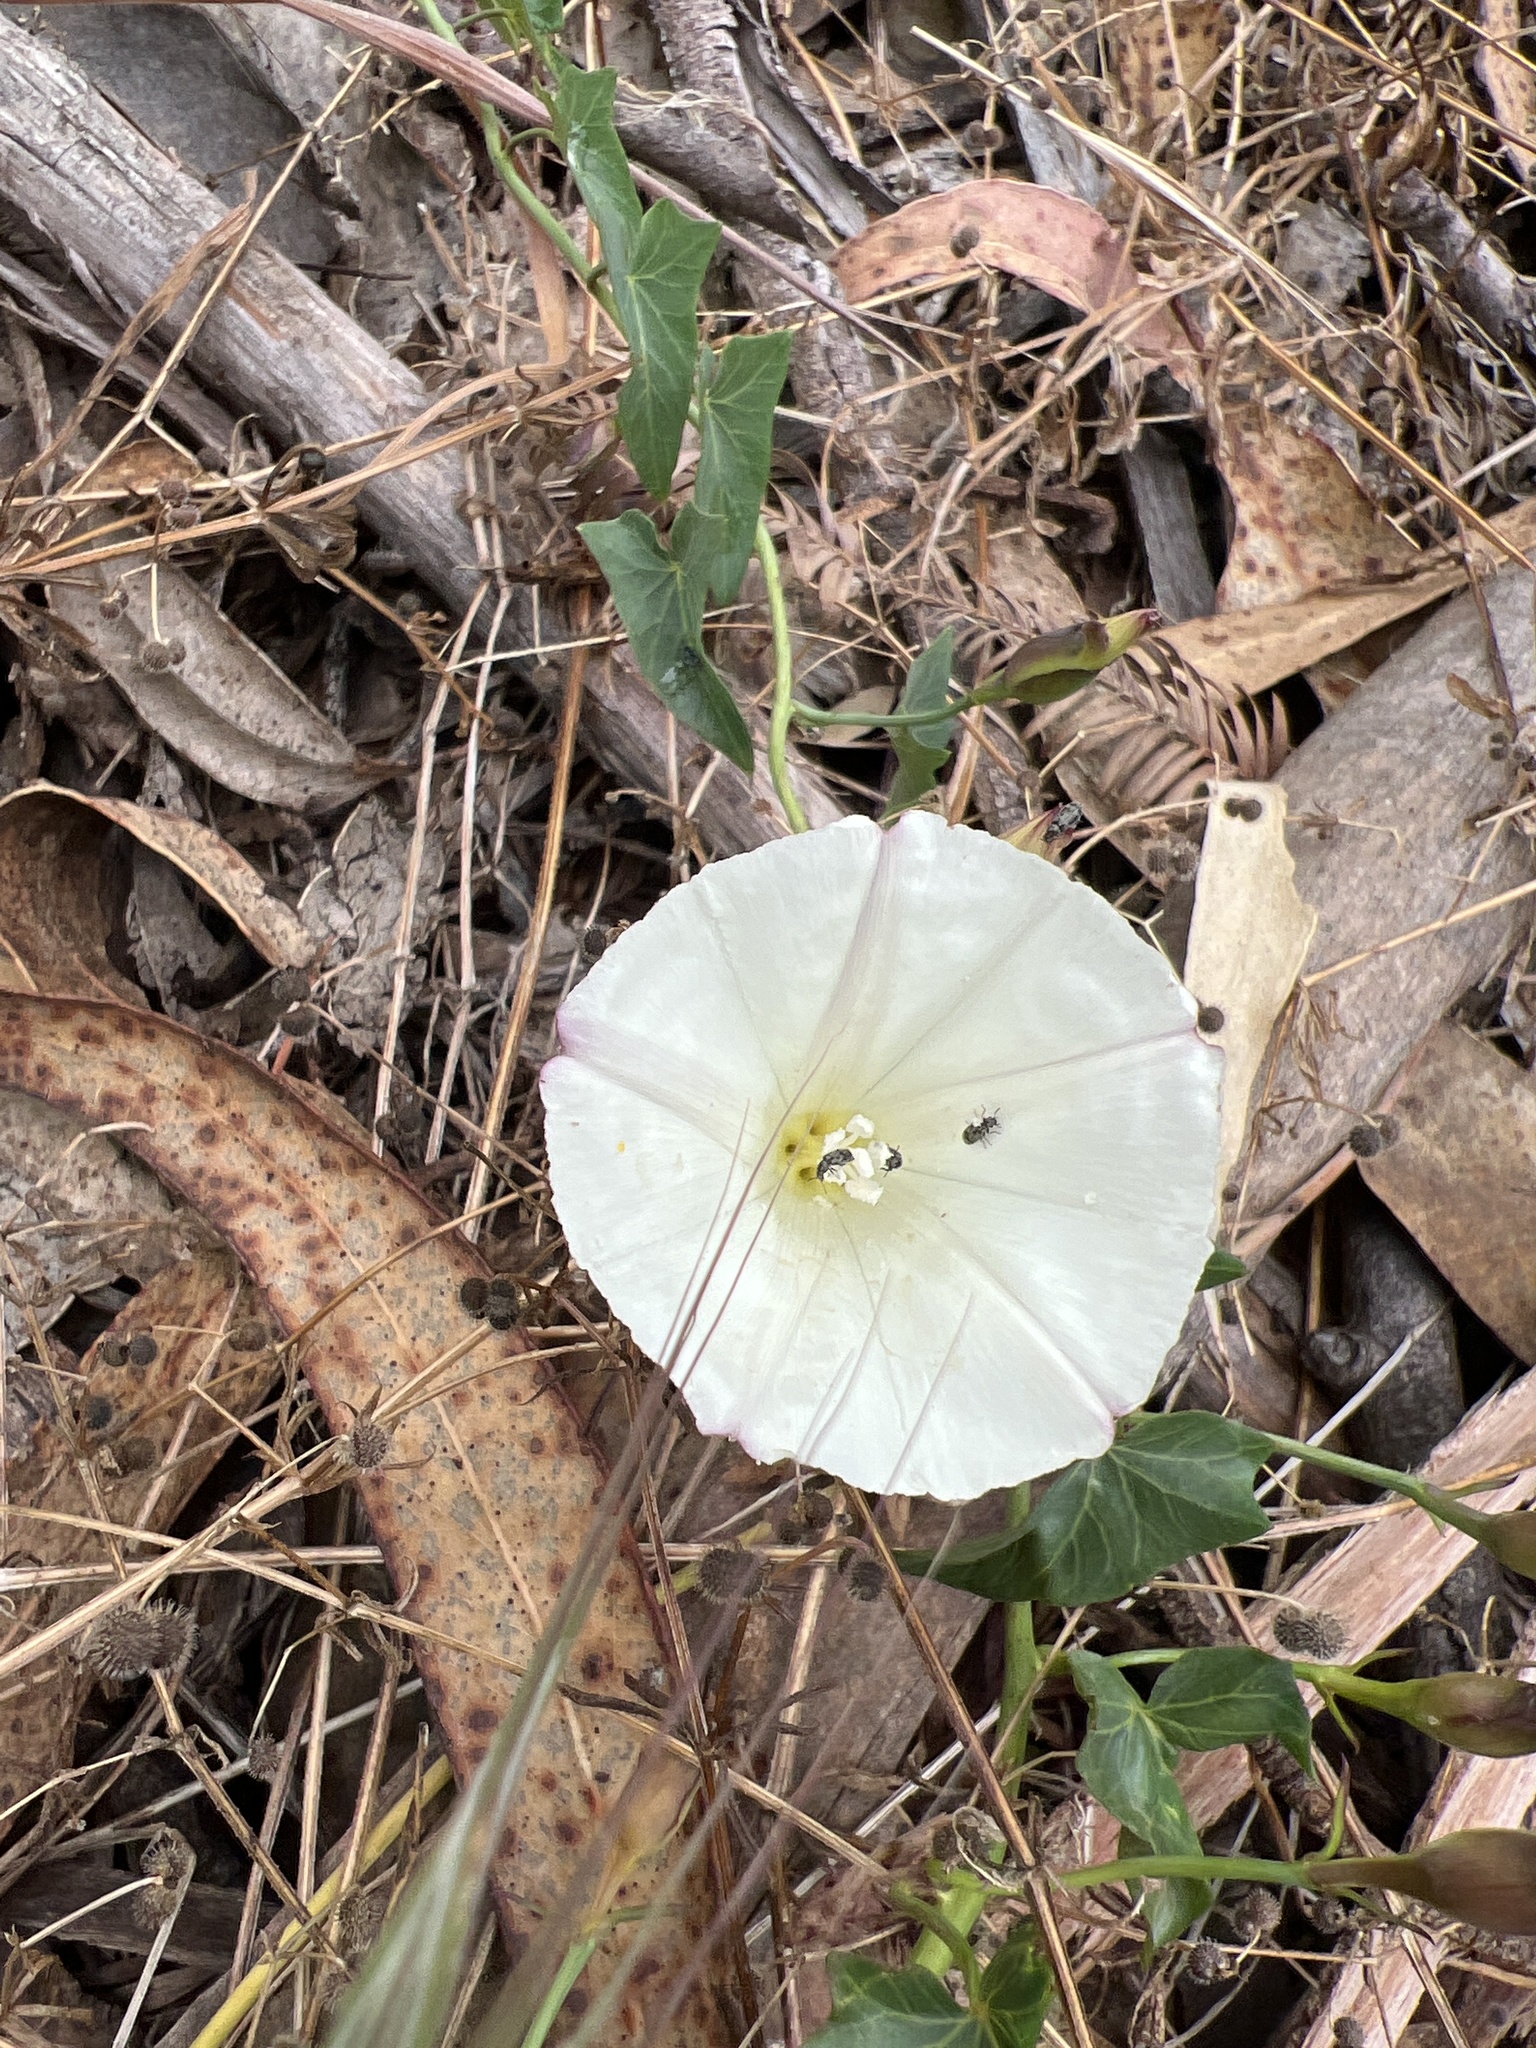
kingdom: Plantae
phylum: Tracheophyta
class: Magnoliopsida
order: Solanales
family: Convolvulaceae
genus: Calystegia
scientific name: Calystegia purpurata
